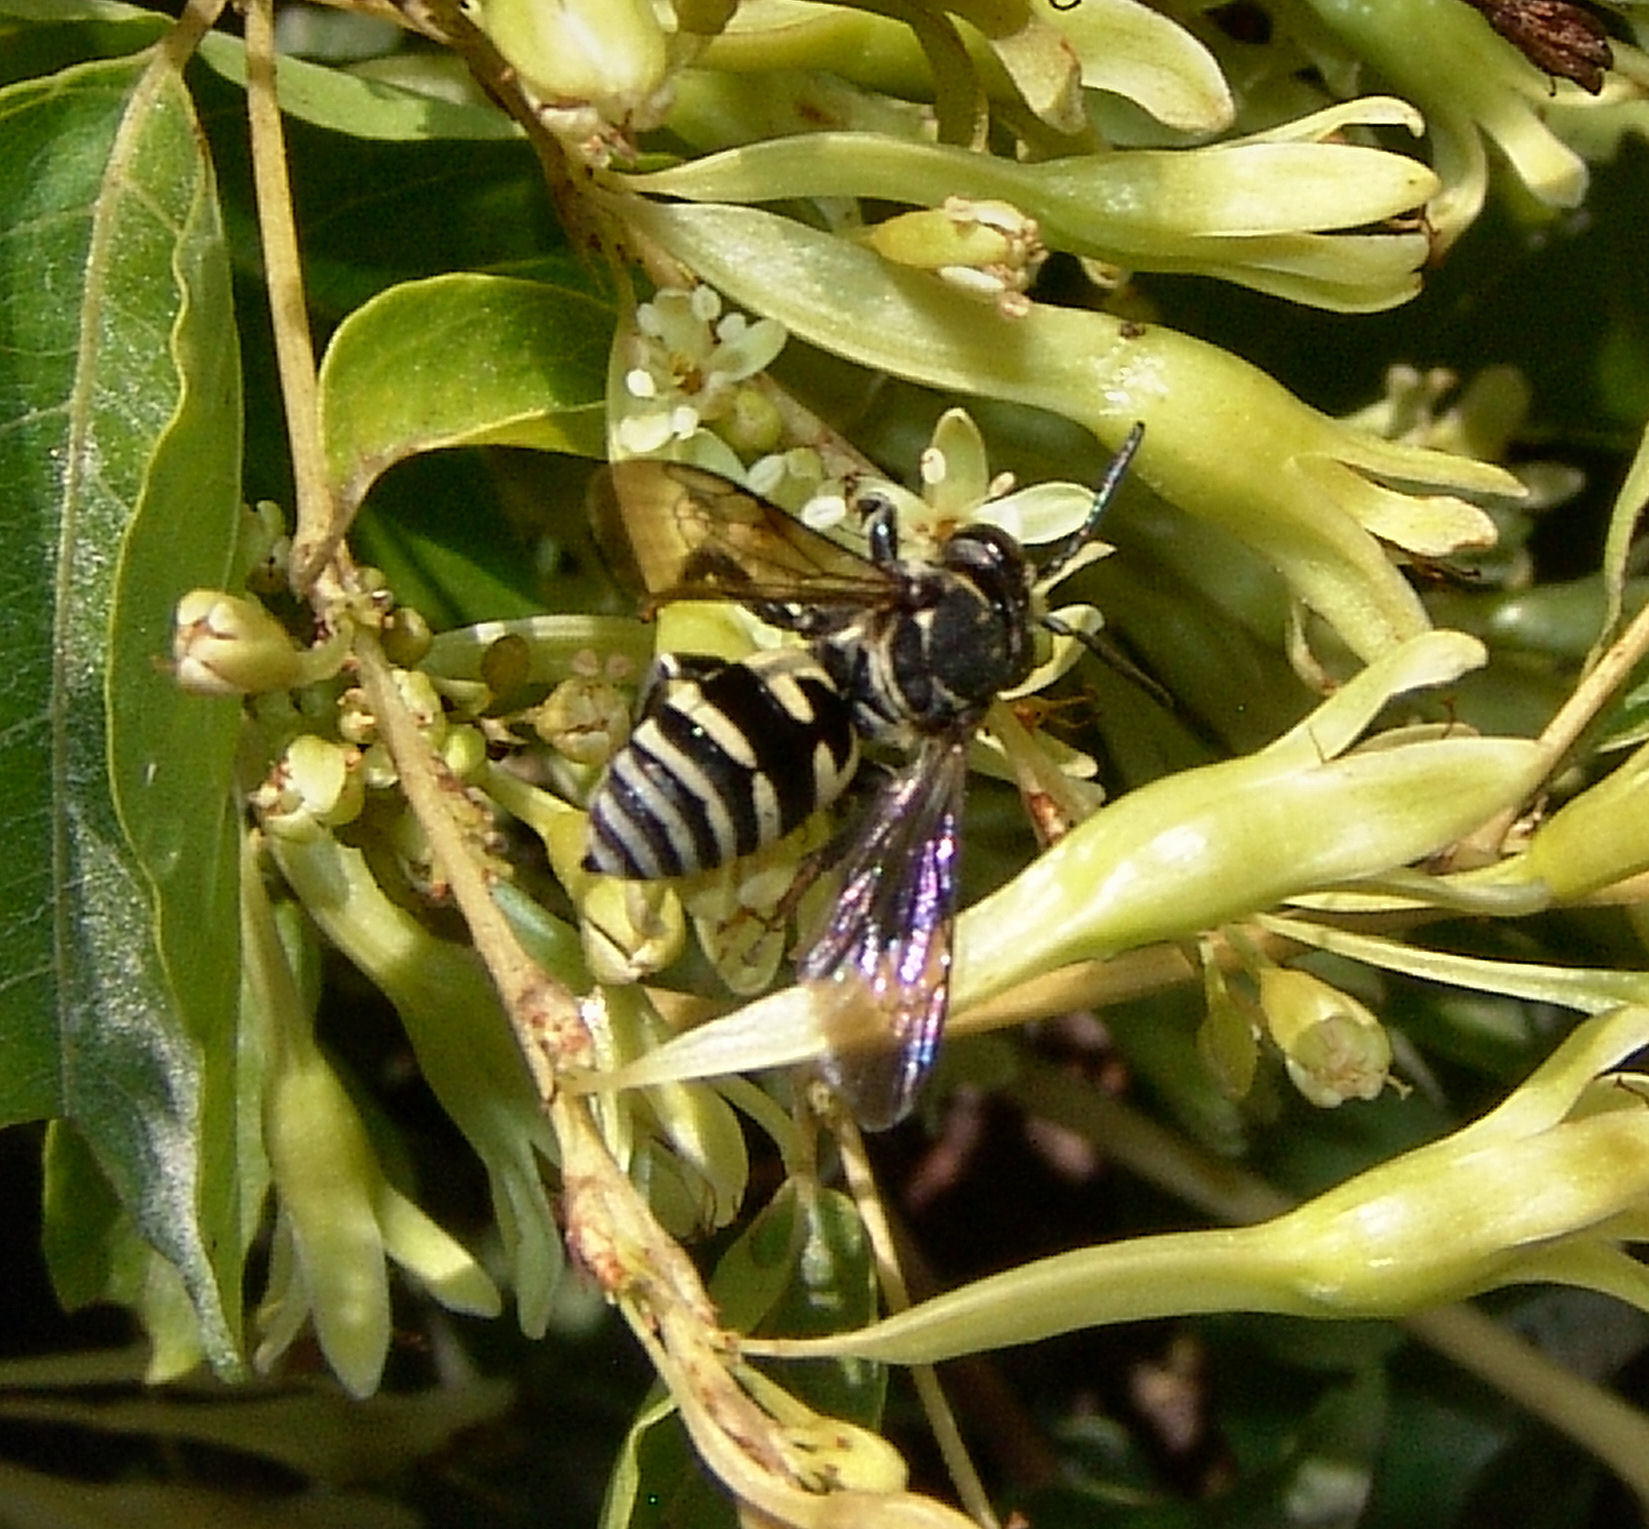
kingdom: Animalia
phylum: Arthropoda
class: Insecta
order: Hymenoptera
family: Apidae
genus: Triepeolus
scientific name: Triepeolus lunatus
